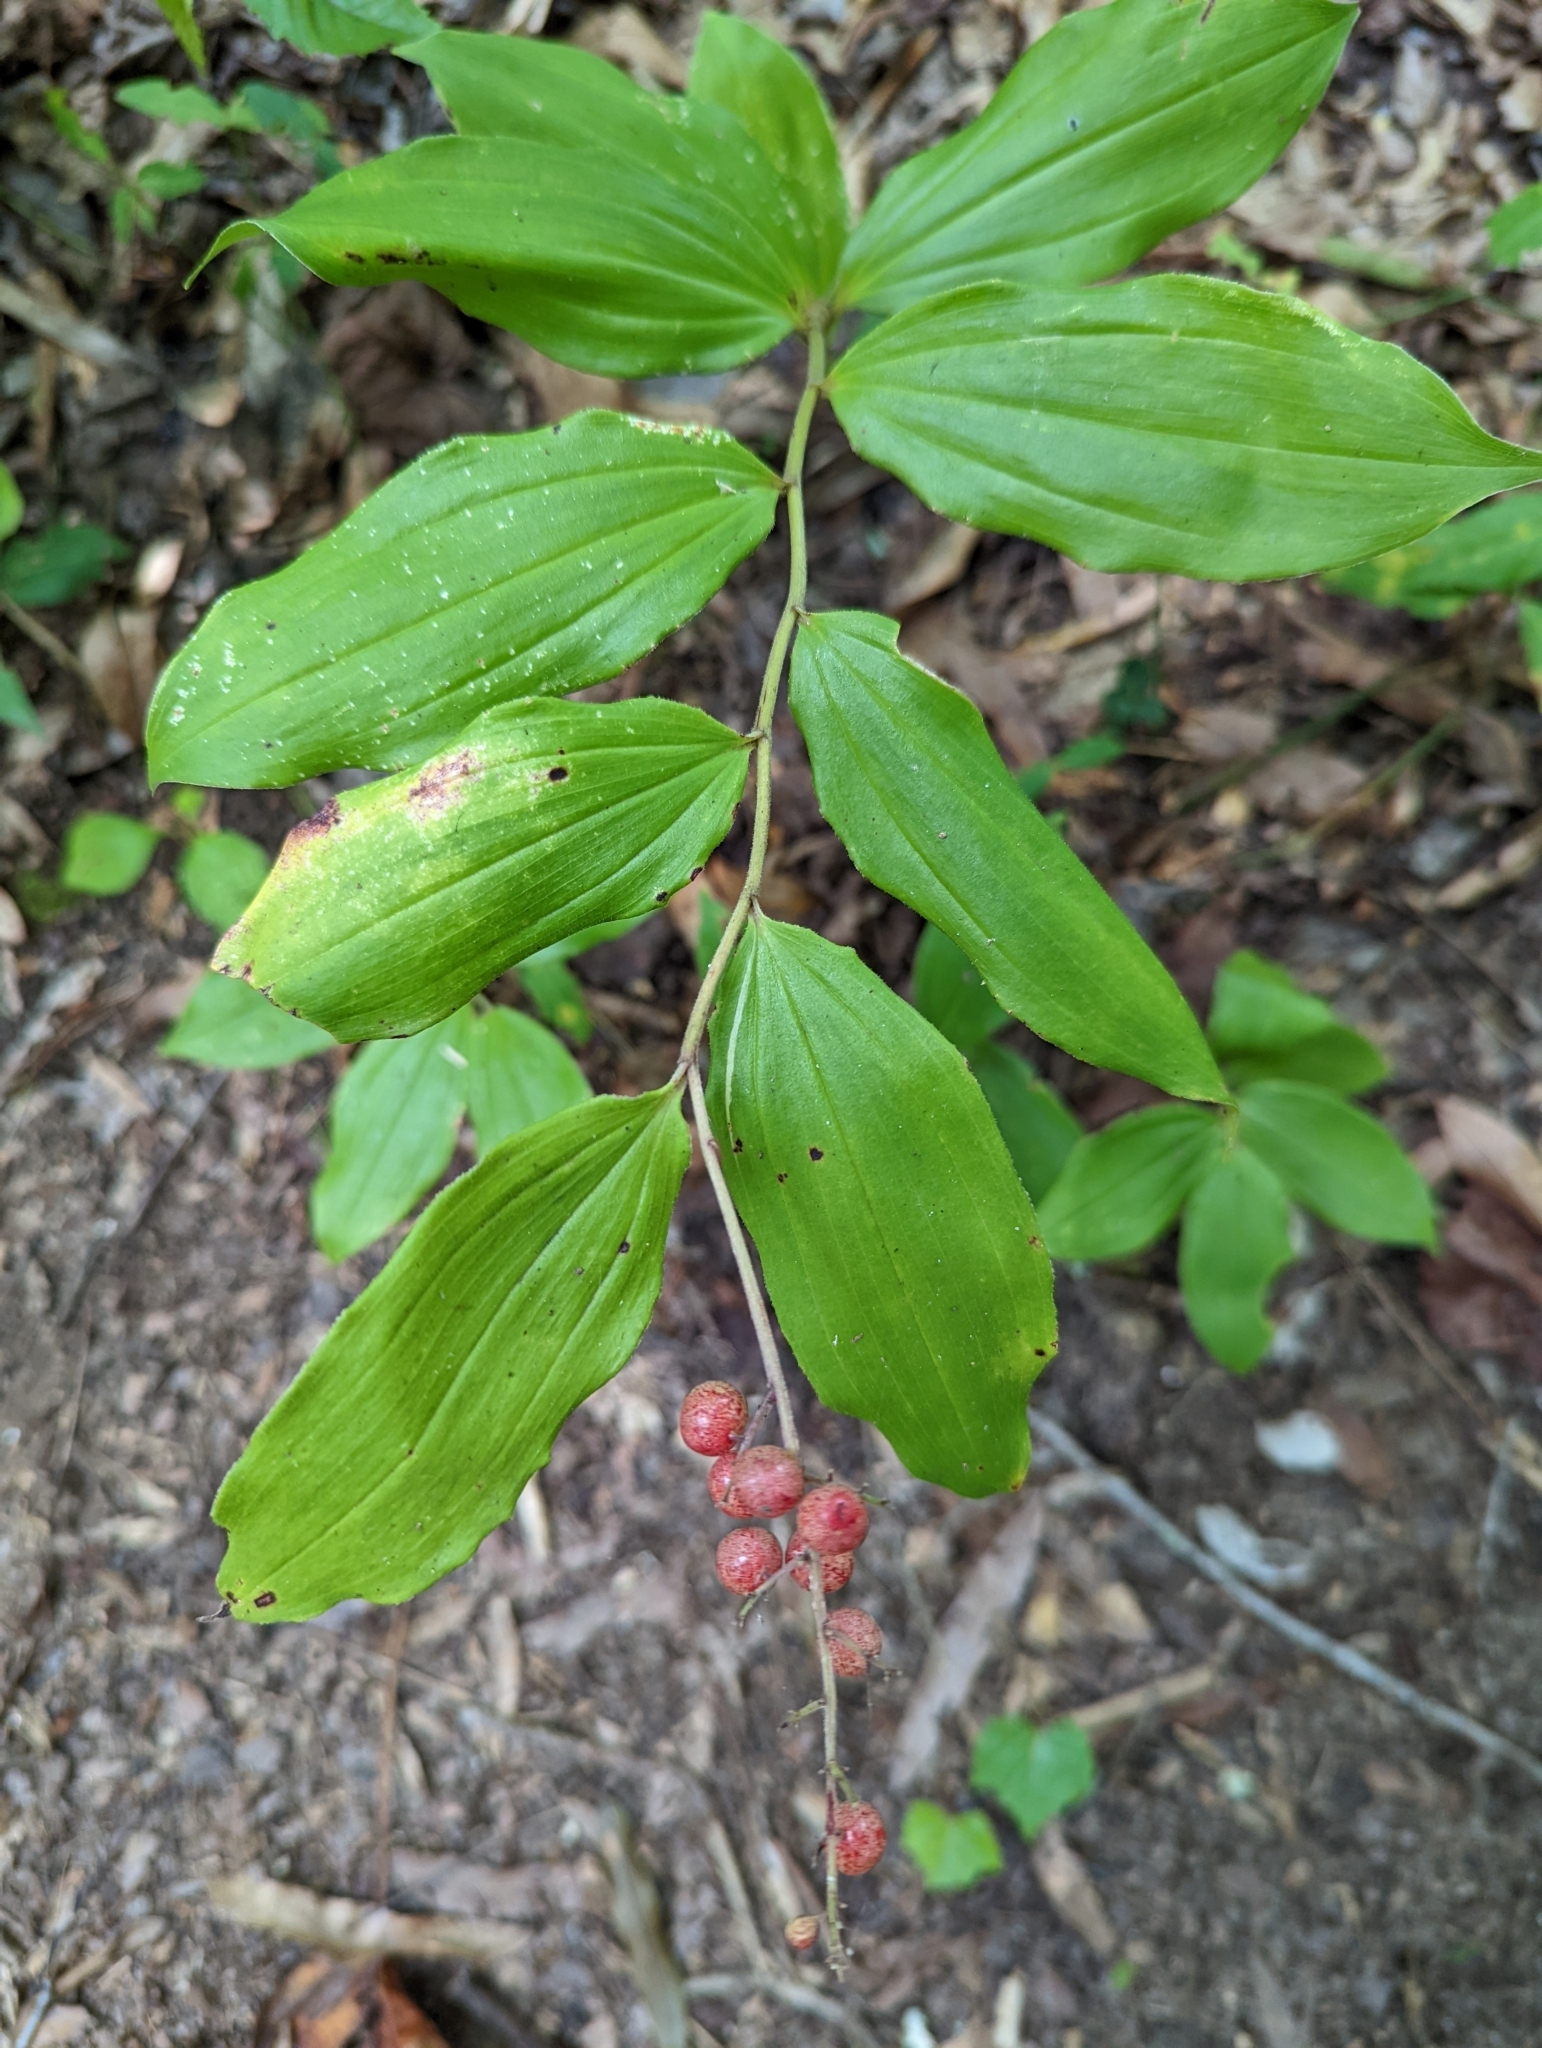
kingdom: Plantae
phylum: Tracheophyta
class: Liliopsida
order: Asparagales
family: Asparagaceae
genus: Maianthemum
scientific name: Maianthemum racemosum
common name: False spikenard
